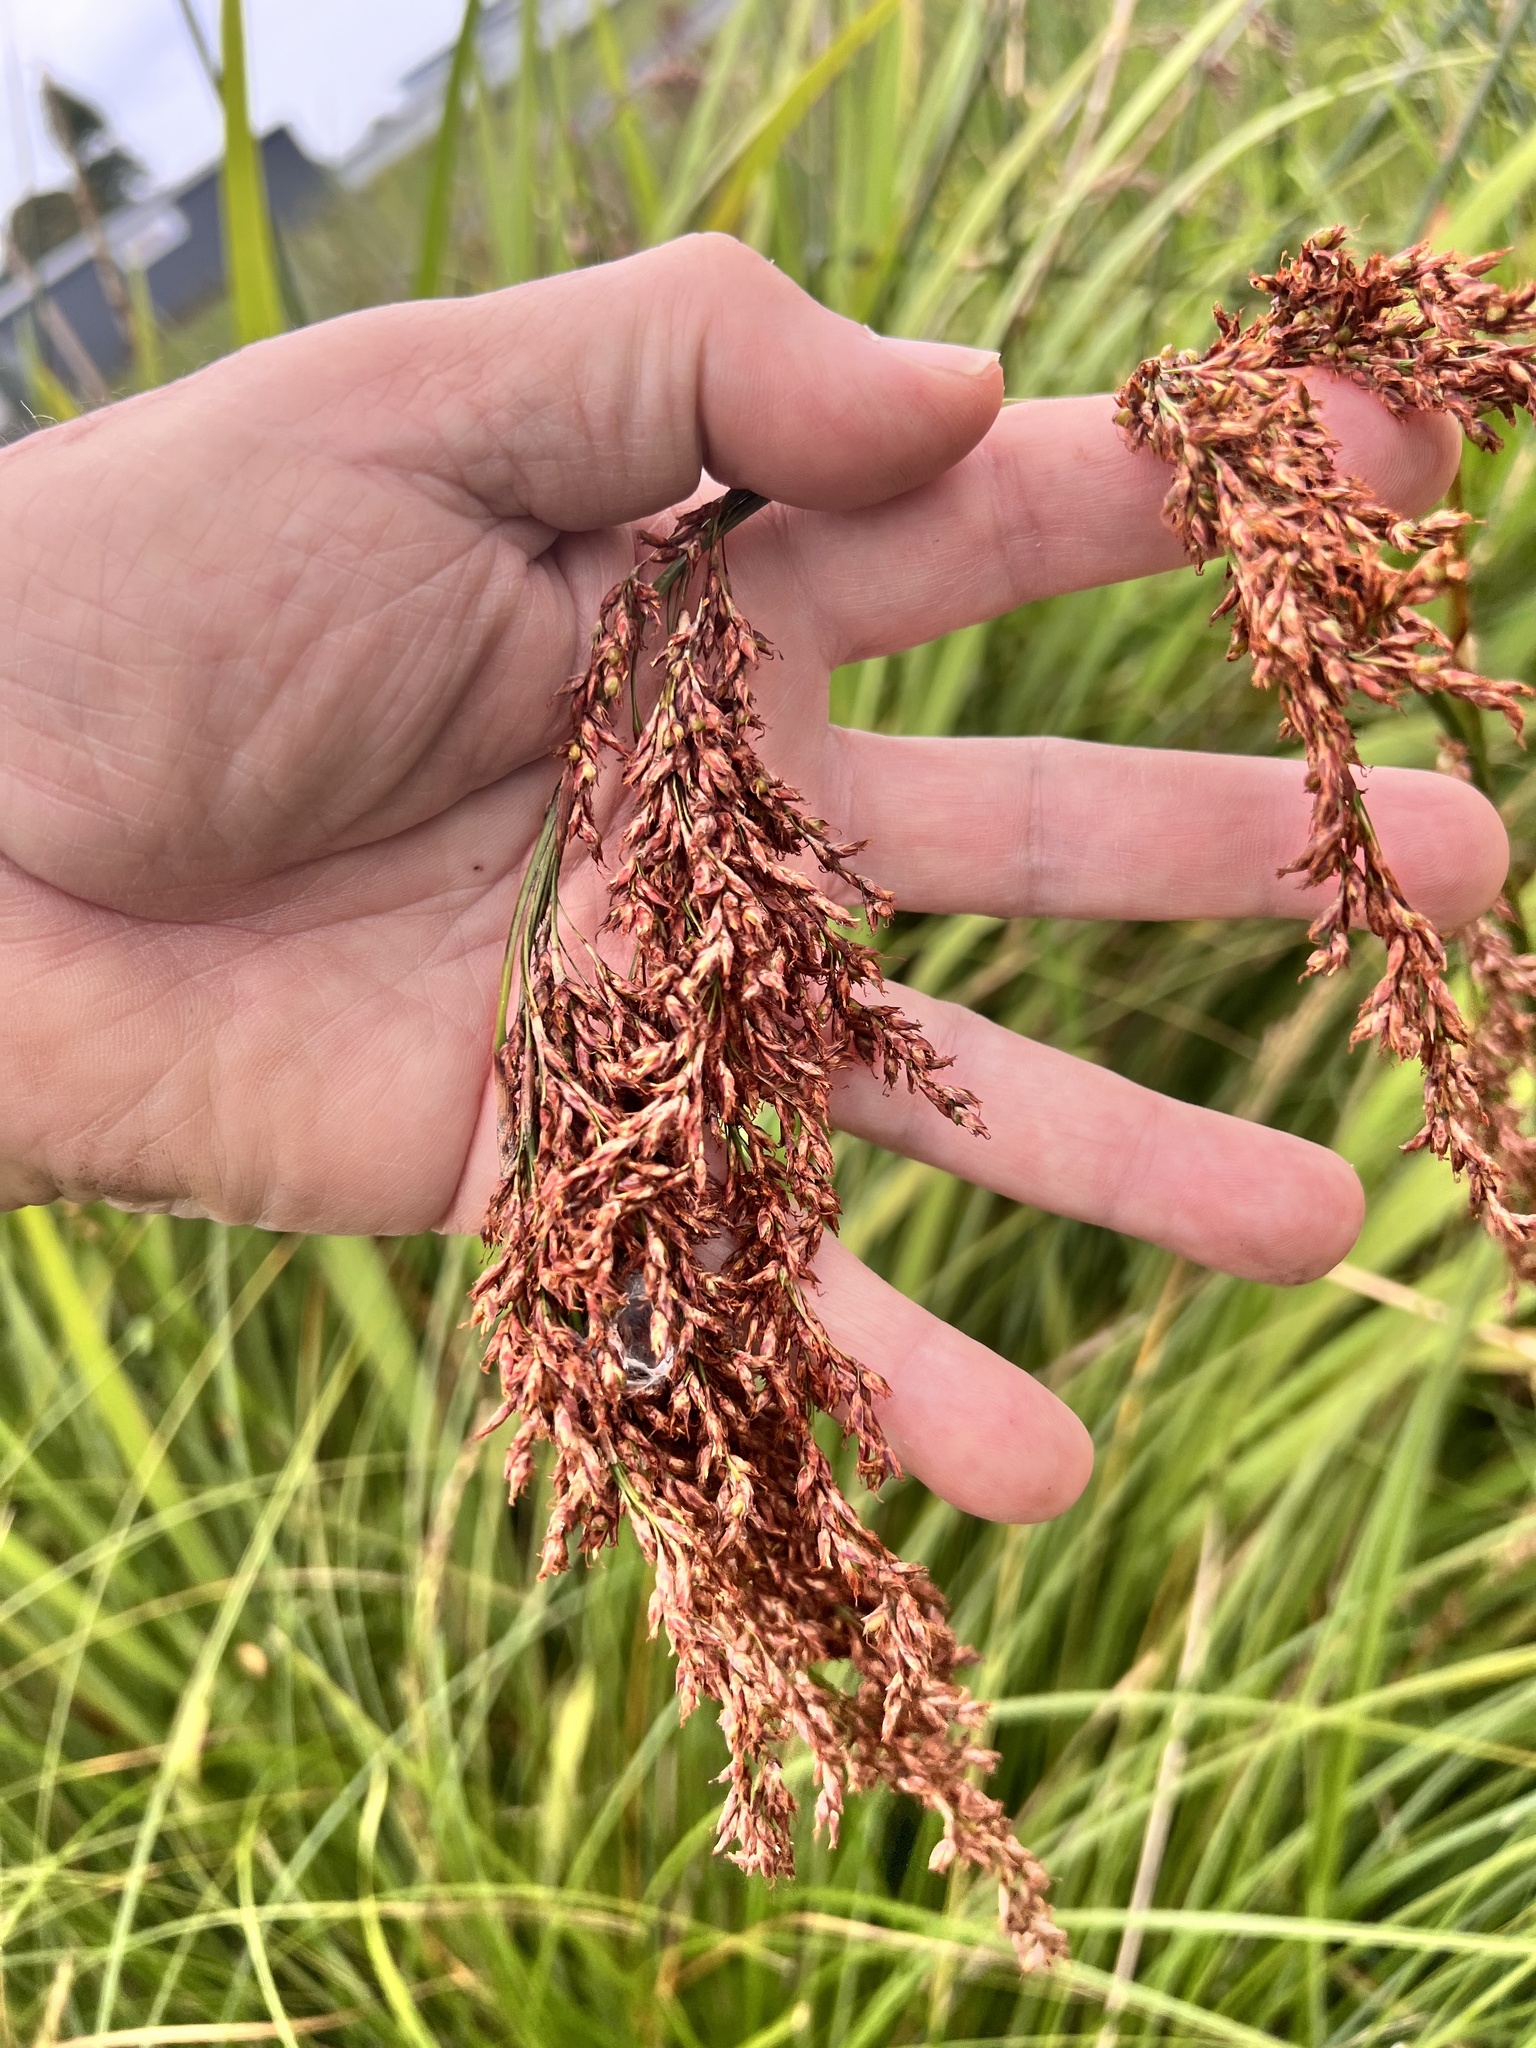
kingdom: Plantae
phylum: Tracheophyta
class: Liliopsida
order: Poales
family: Cyperaceae
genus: Machaerina
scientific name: Machaerina articulata
